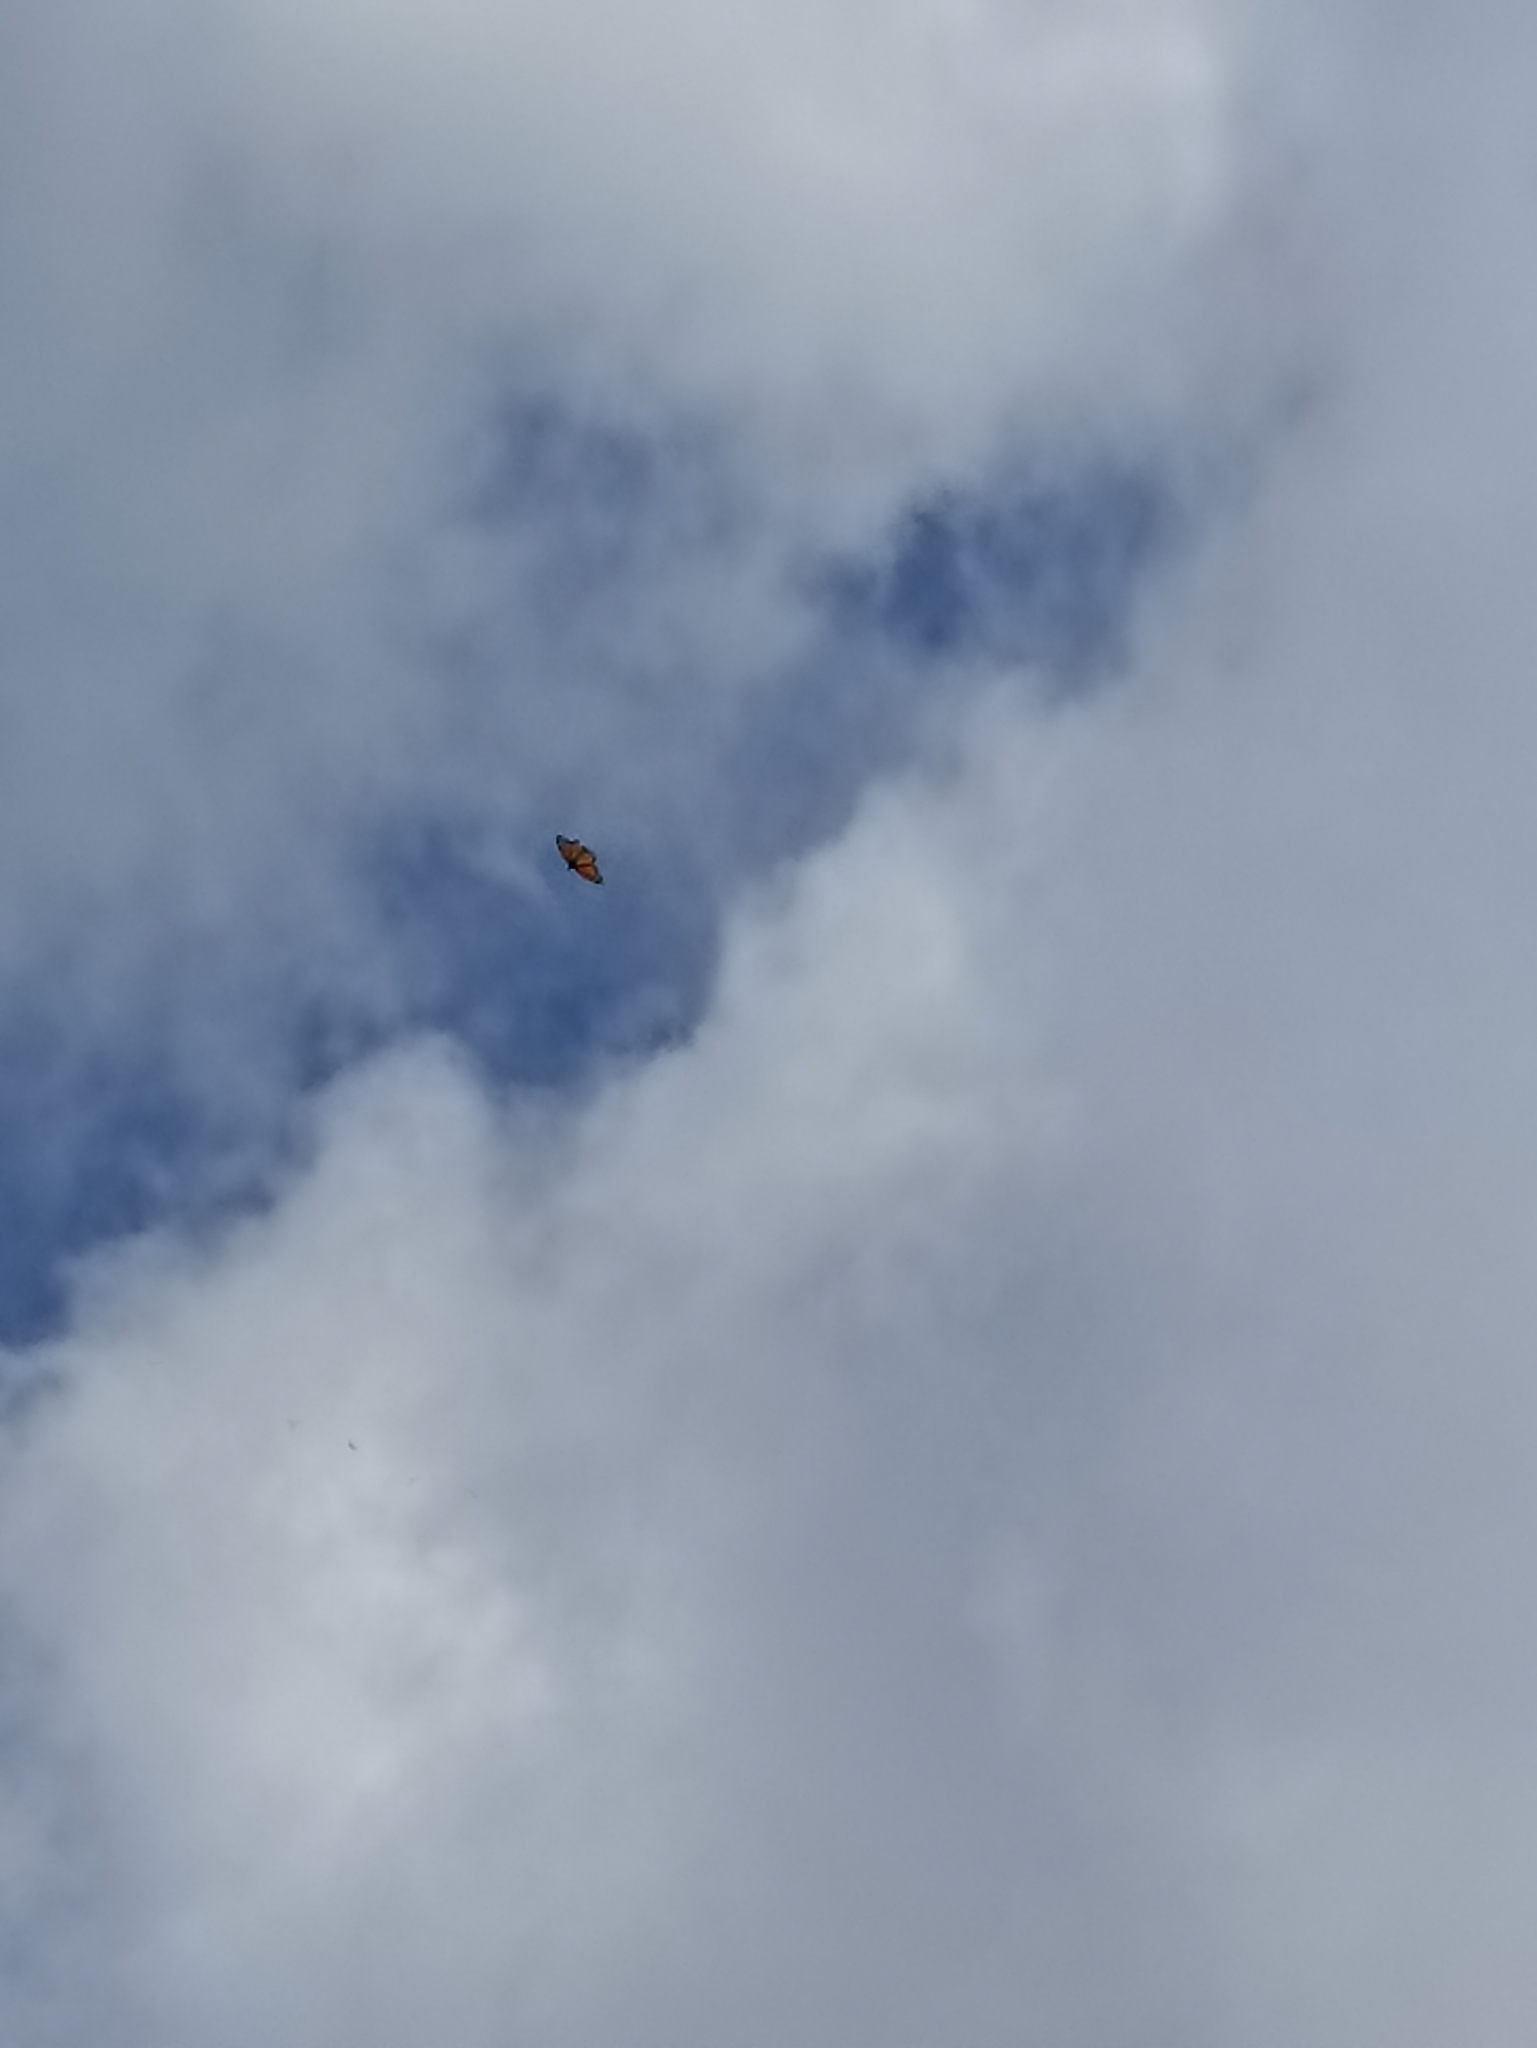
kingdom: Animalia
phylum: Arthropoda
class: Insecta
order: Lepidoptera
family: Nymphalidae
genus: Danaus
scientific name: Danaus plexippus
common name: Monarch
